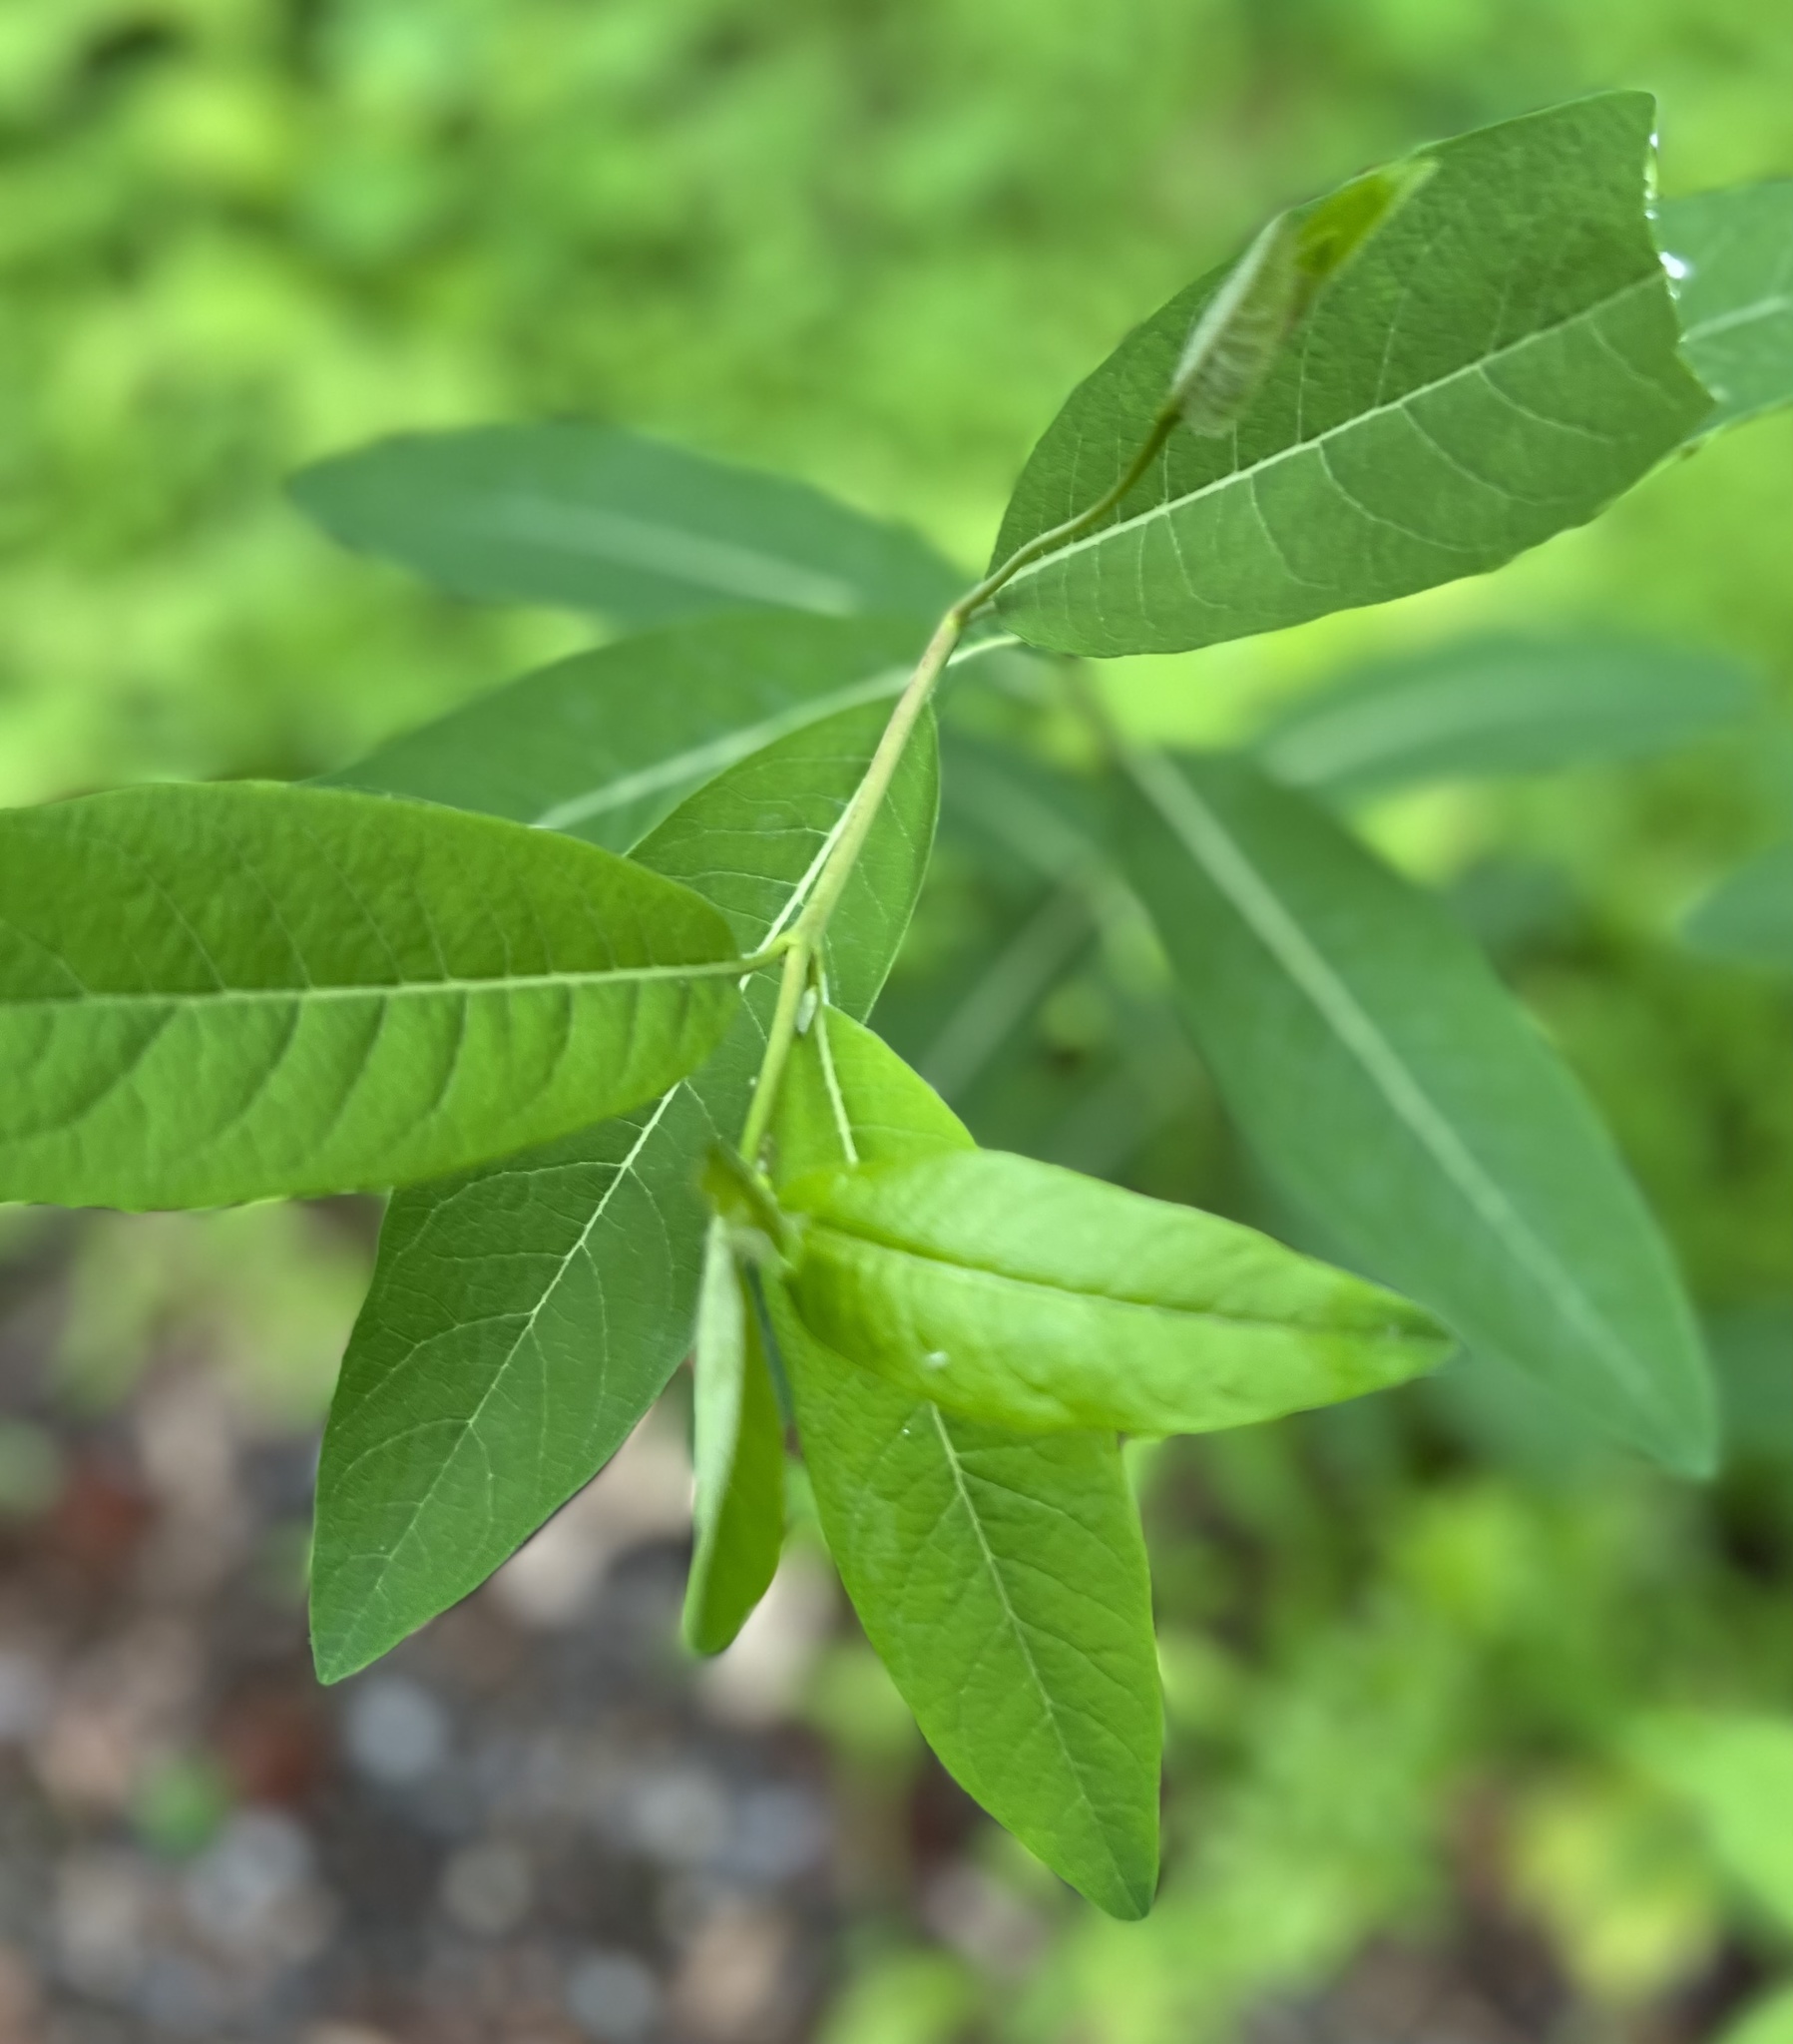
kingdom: Plantae
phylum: Tracheophyta
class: Magnoliopsida
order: Gentianales
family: Apocynaceae
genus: Apocynum
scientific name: Apocynum cannabinum
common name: Hemp dogbane
